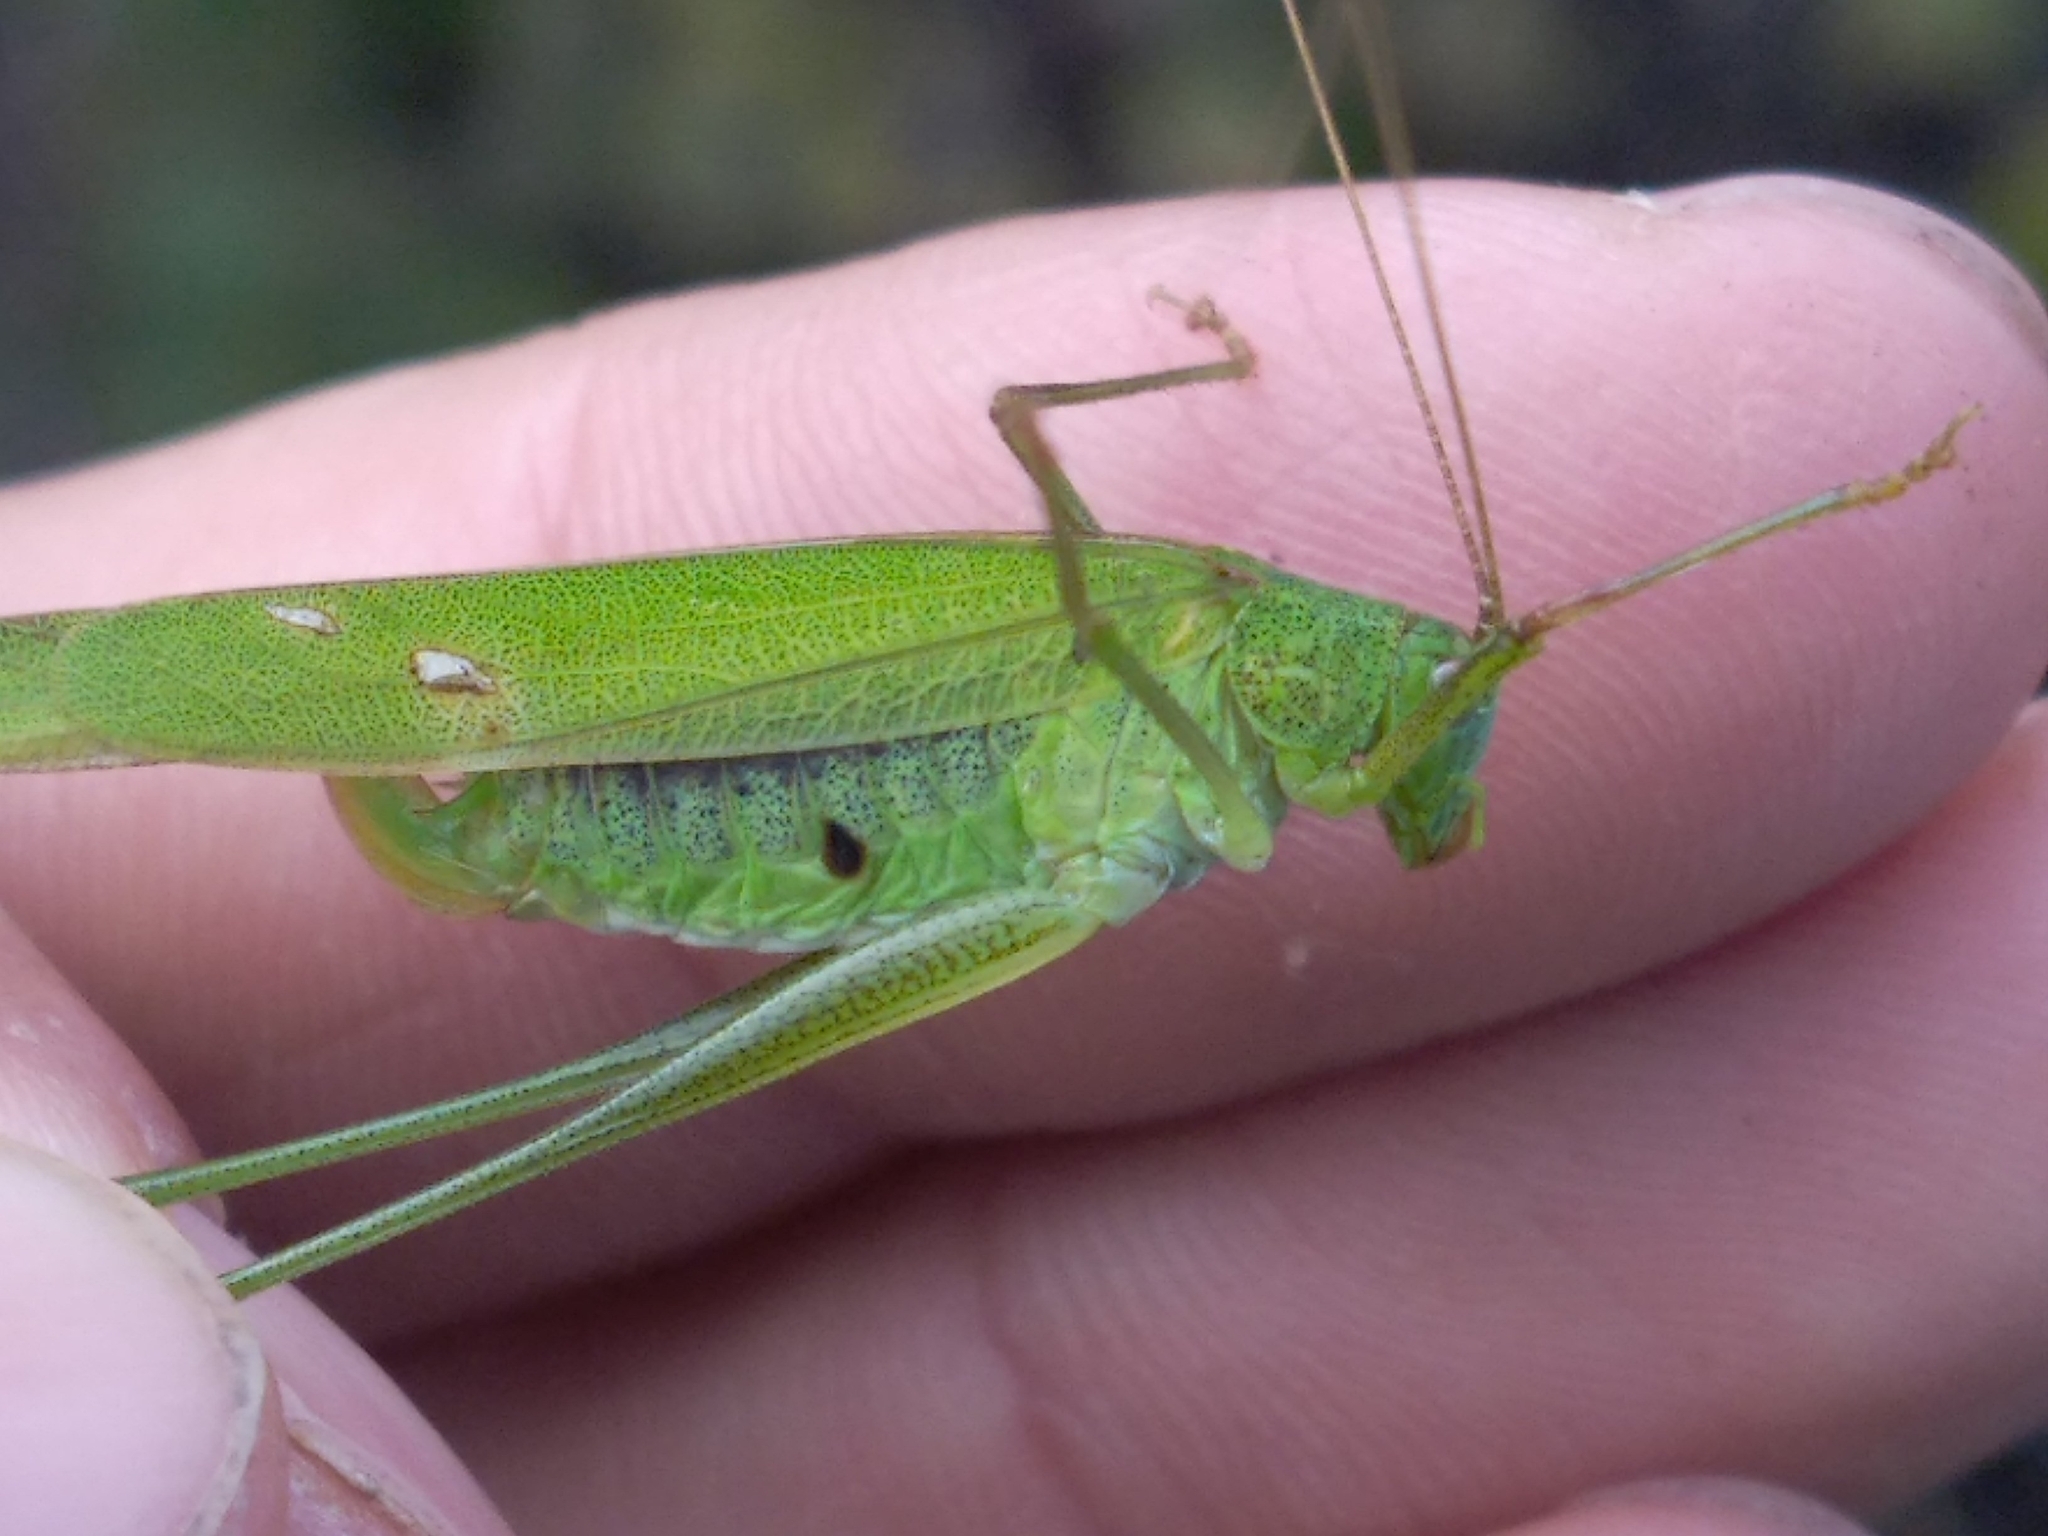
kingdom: Animalia
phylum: Arthropoda
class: Insecta
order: Orthoptera
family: Tettigoniidae
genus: Phaneroptera
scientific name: Phaneroptera falcata
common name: Sickle-bearing bush-cricket
